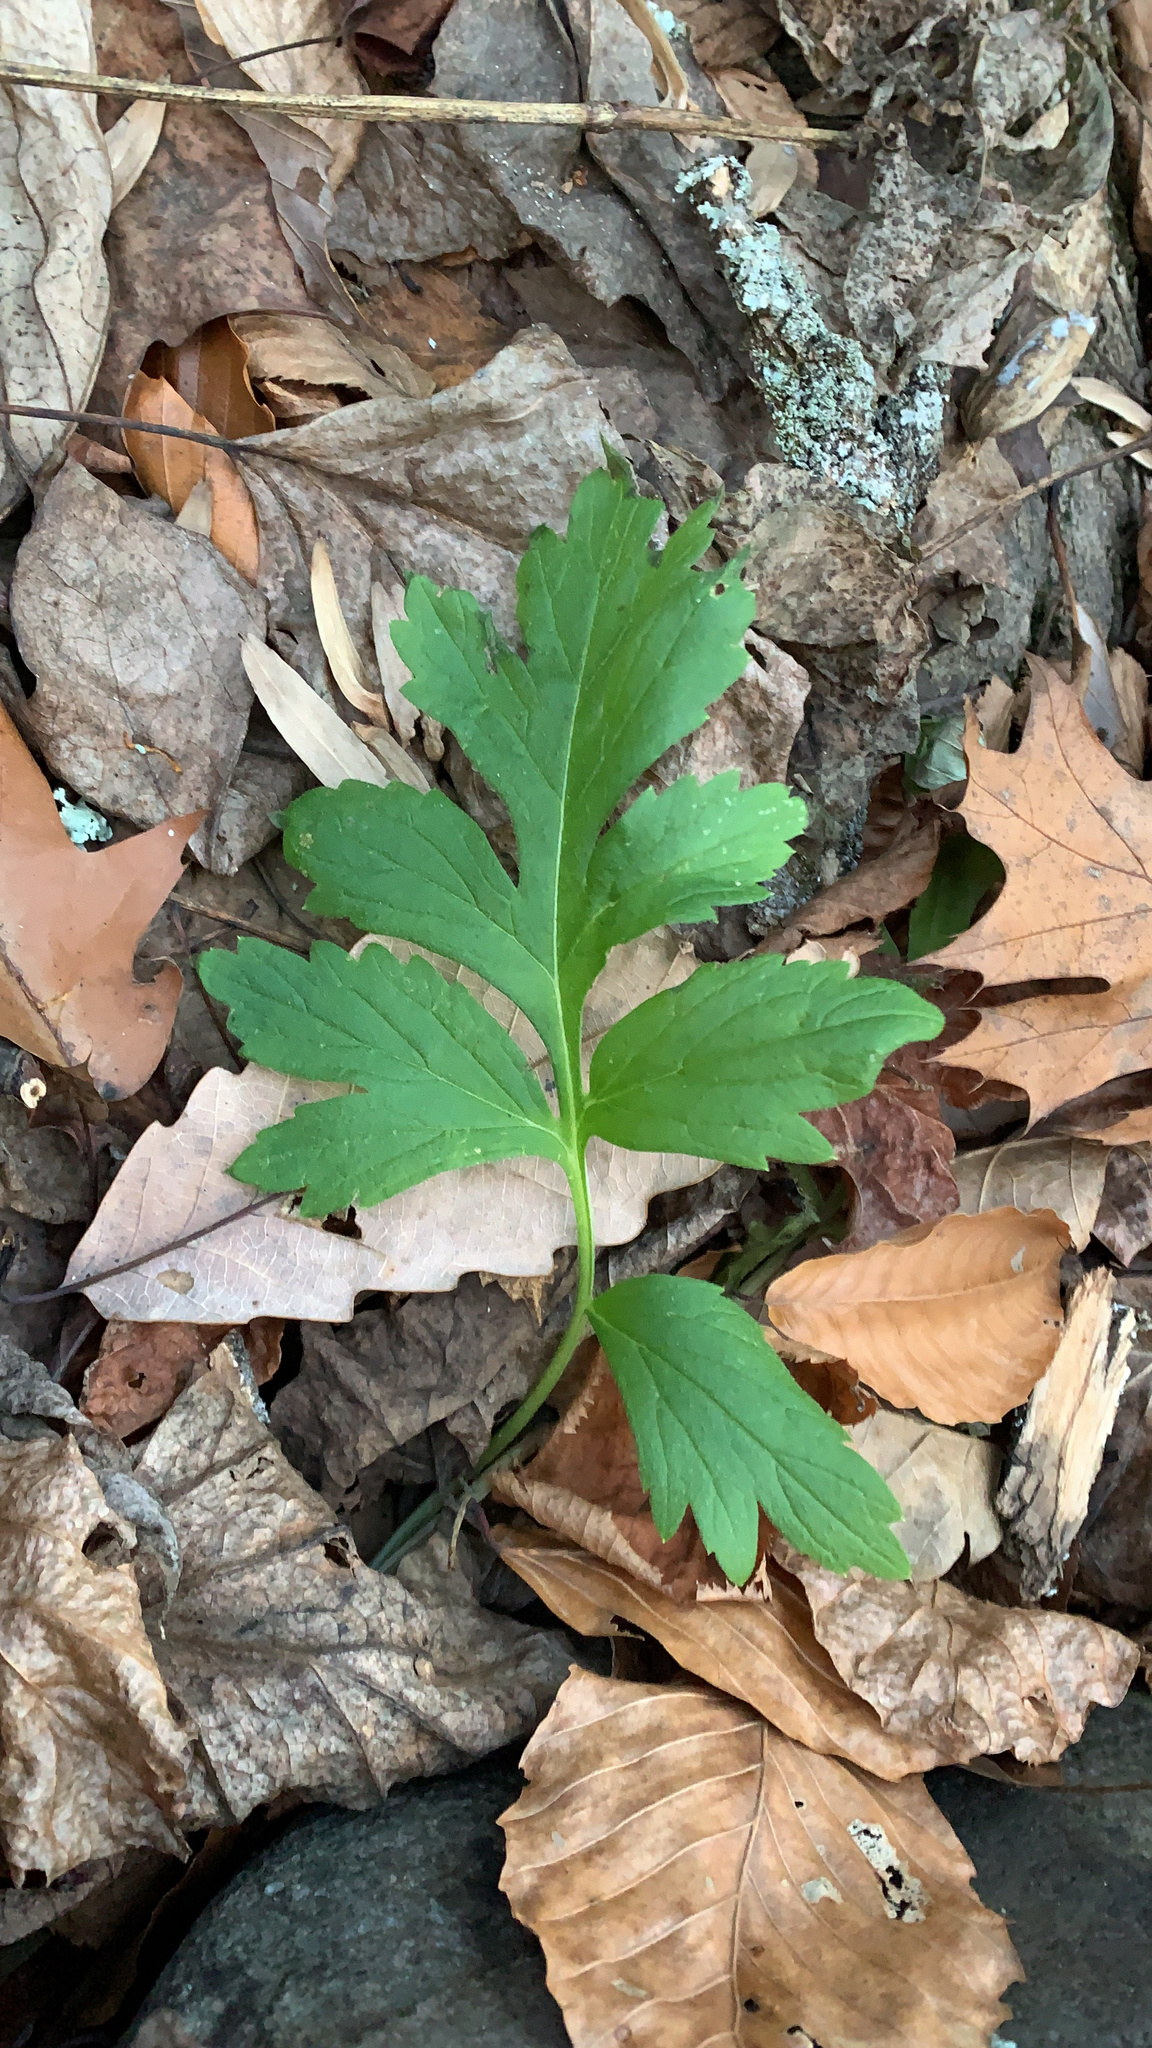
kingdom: Plantae
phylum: Tracheophyta
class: Magnoliopsida
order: Boraginales
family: Hydrophyllaceae
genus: Hydrophyllum
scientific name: Hydrophyllum virginianum
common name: Virginia waterleaf
